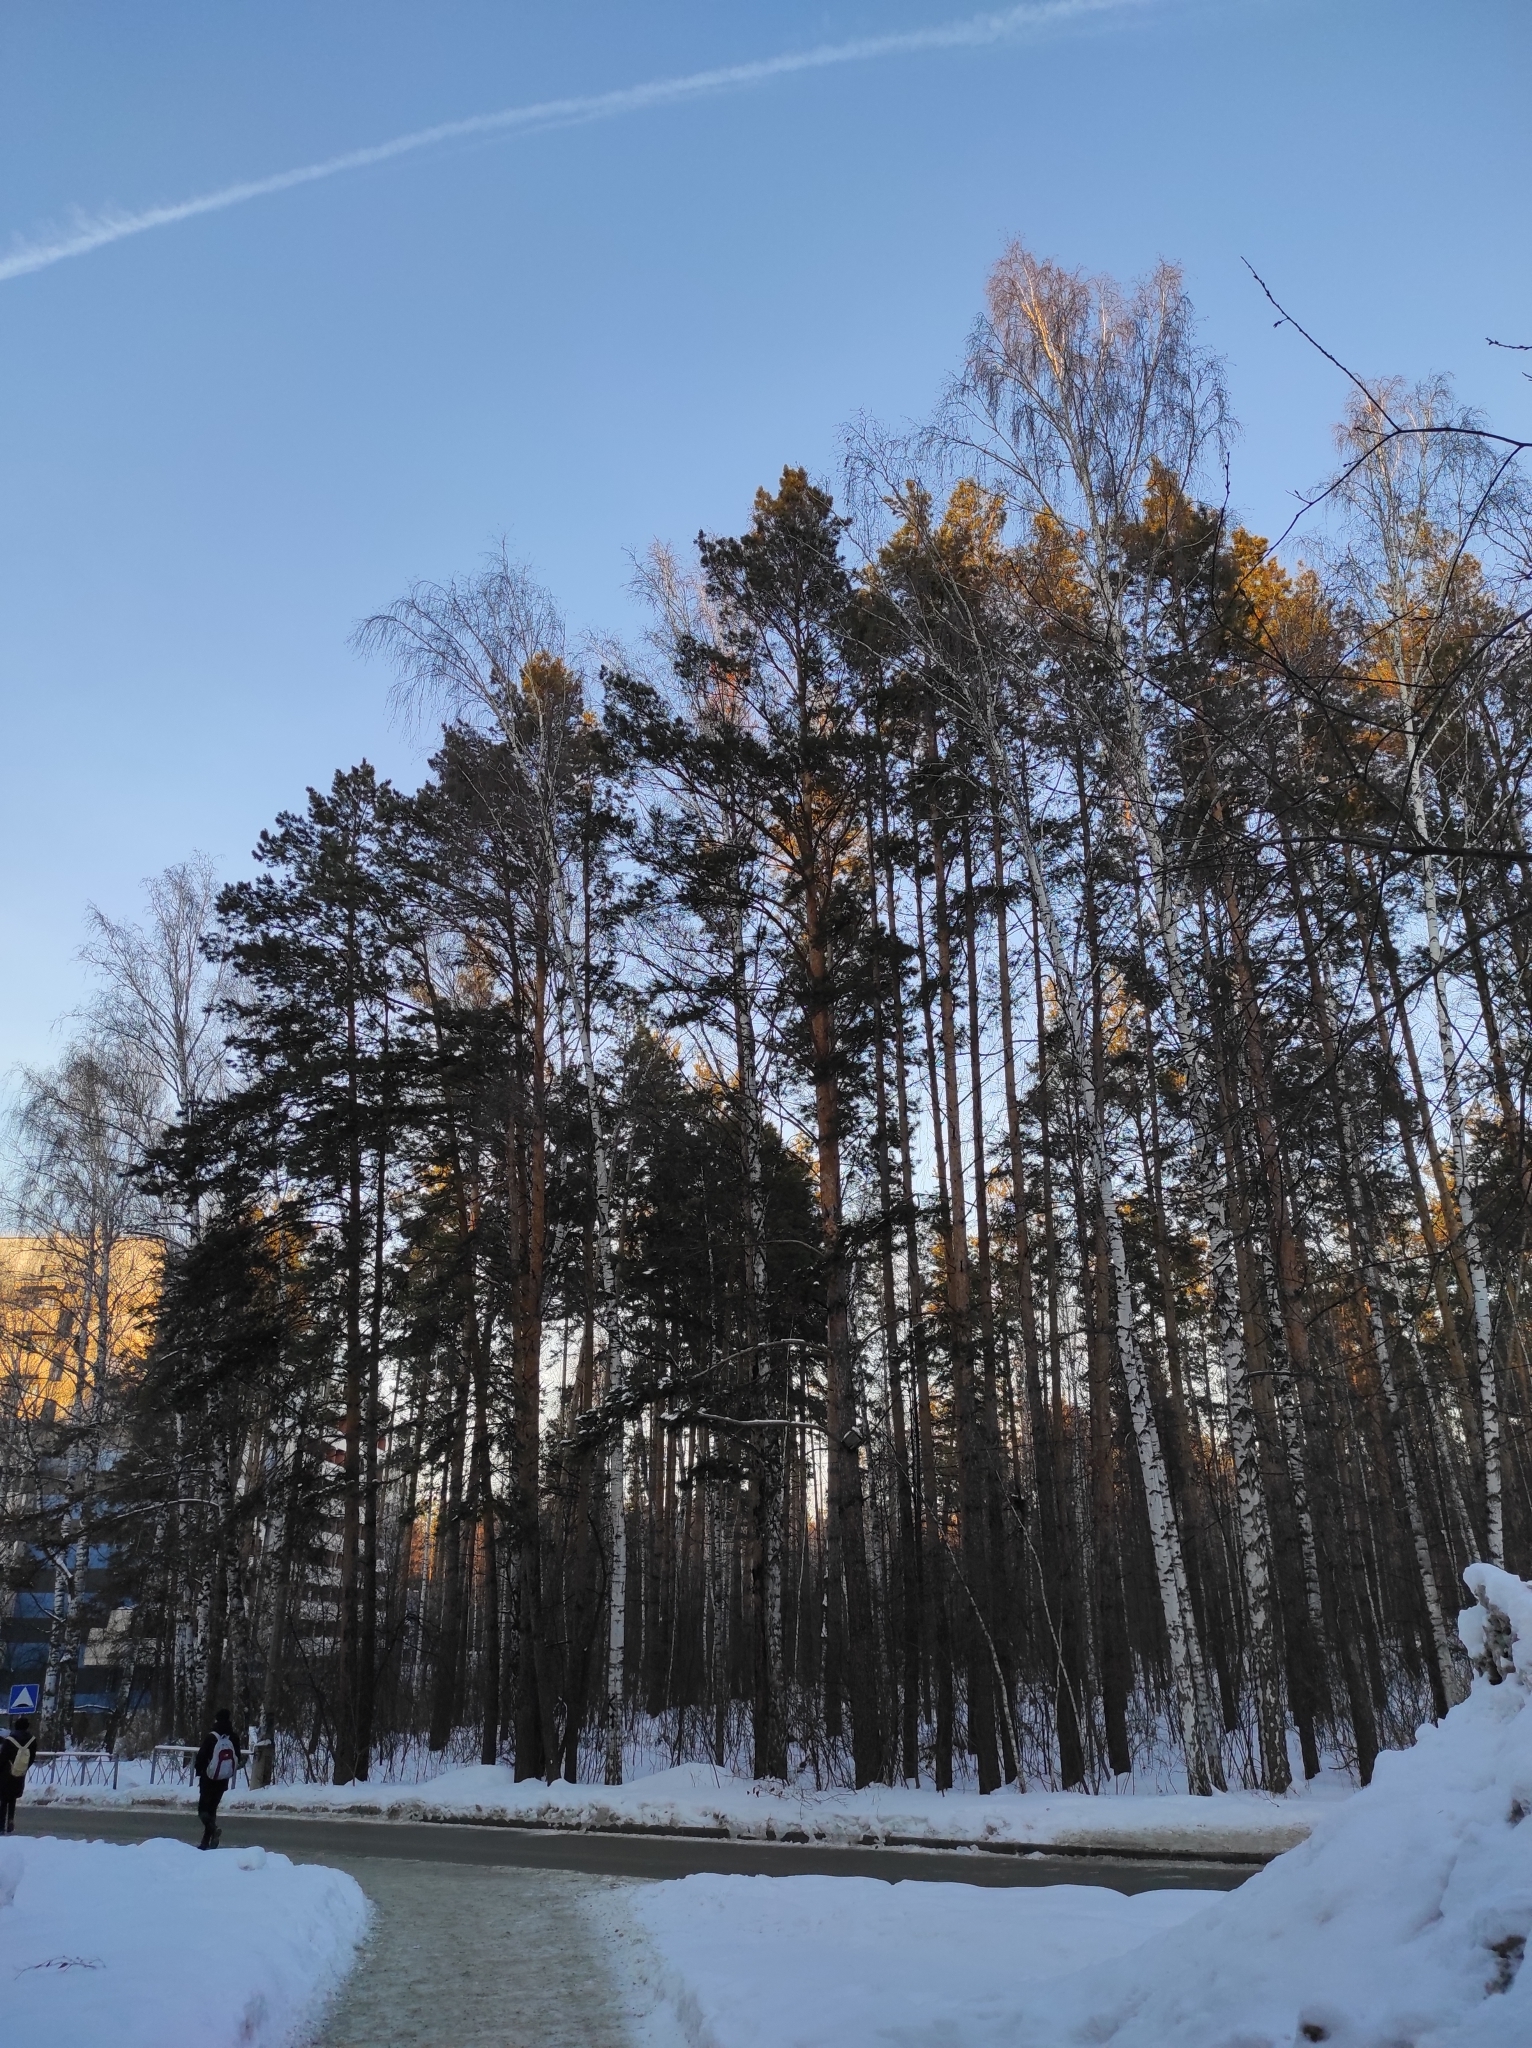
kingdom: Plantae
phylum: Tracheophyta
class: Pinopsida
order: Pinales
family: Pinaceae
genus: Pinus
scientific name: Pinus sylvestris
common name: Scots pine
